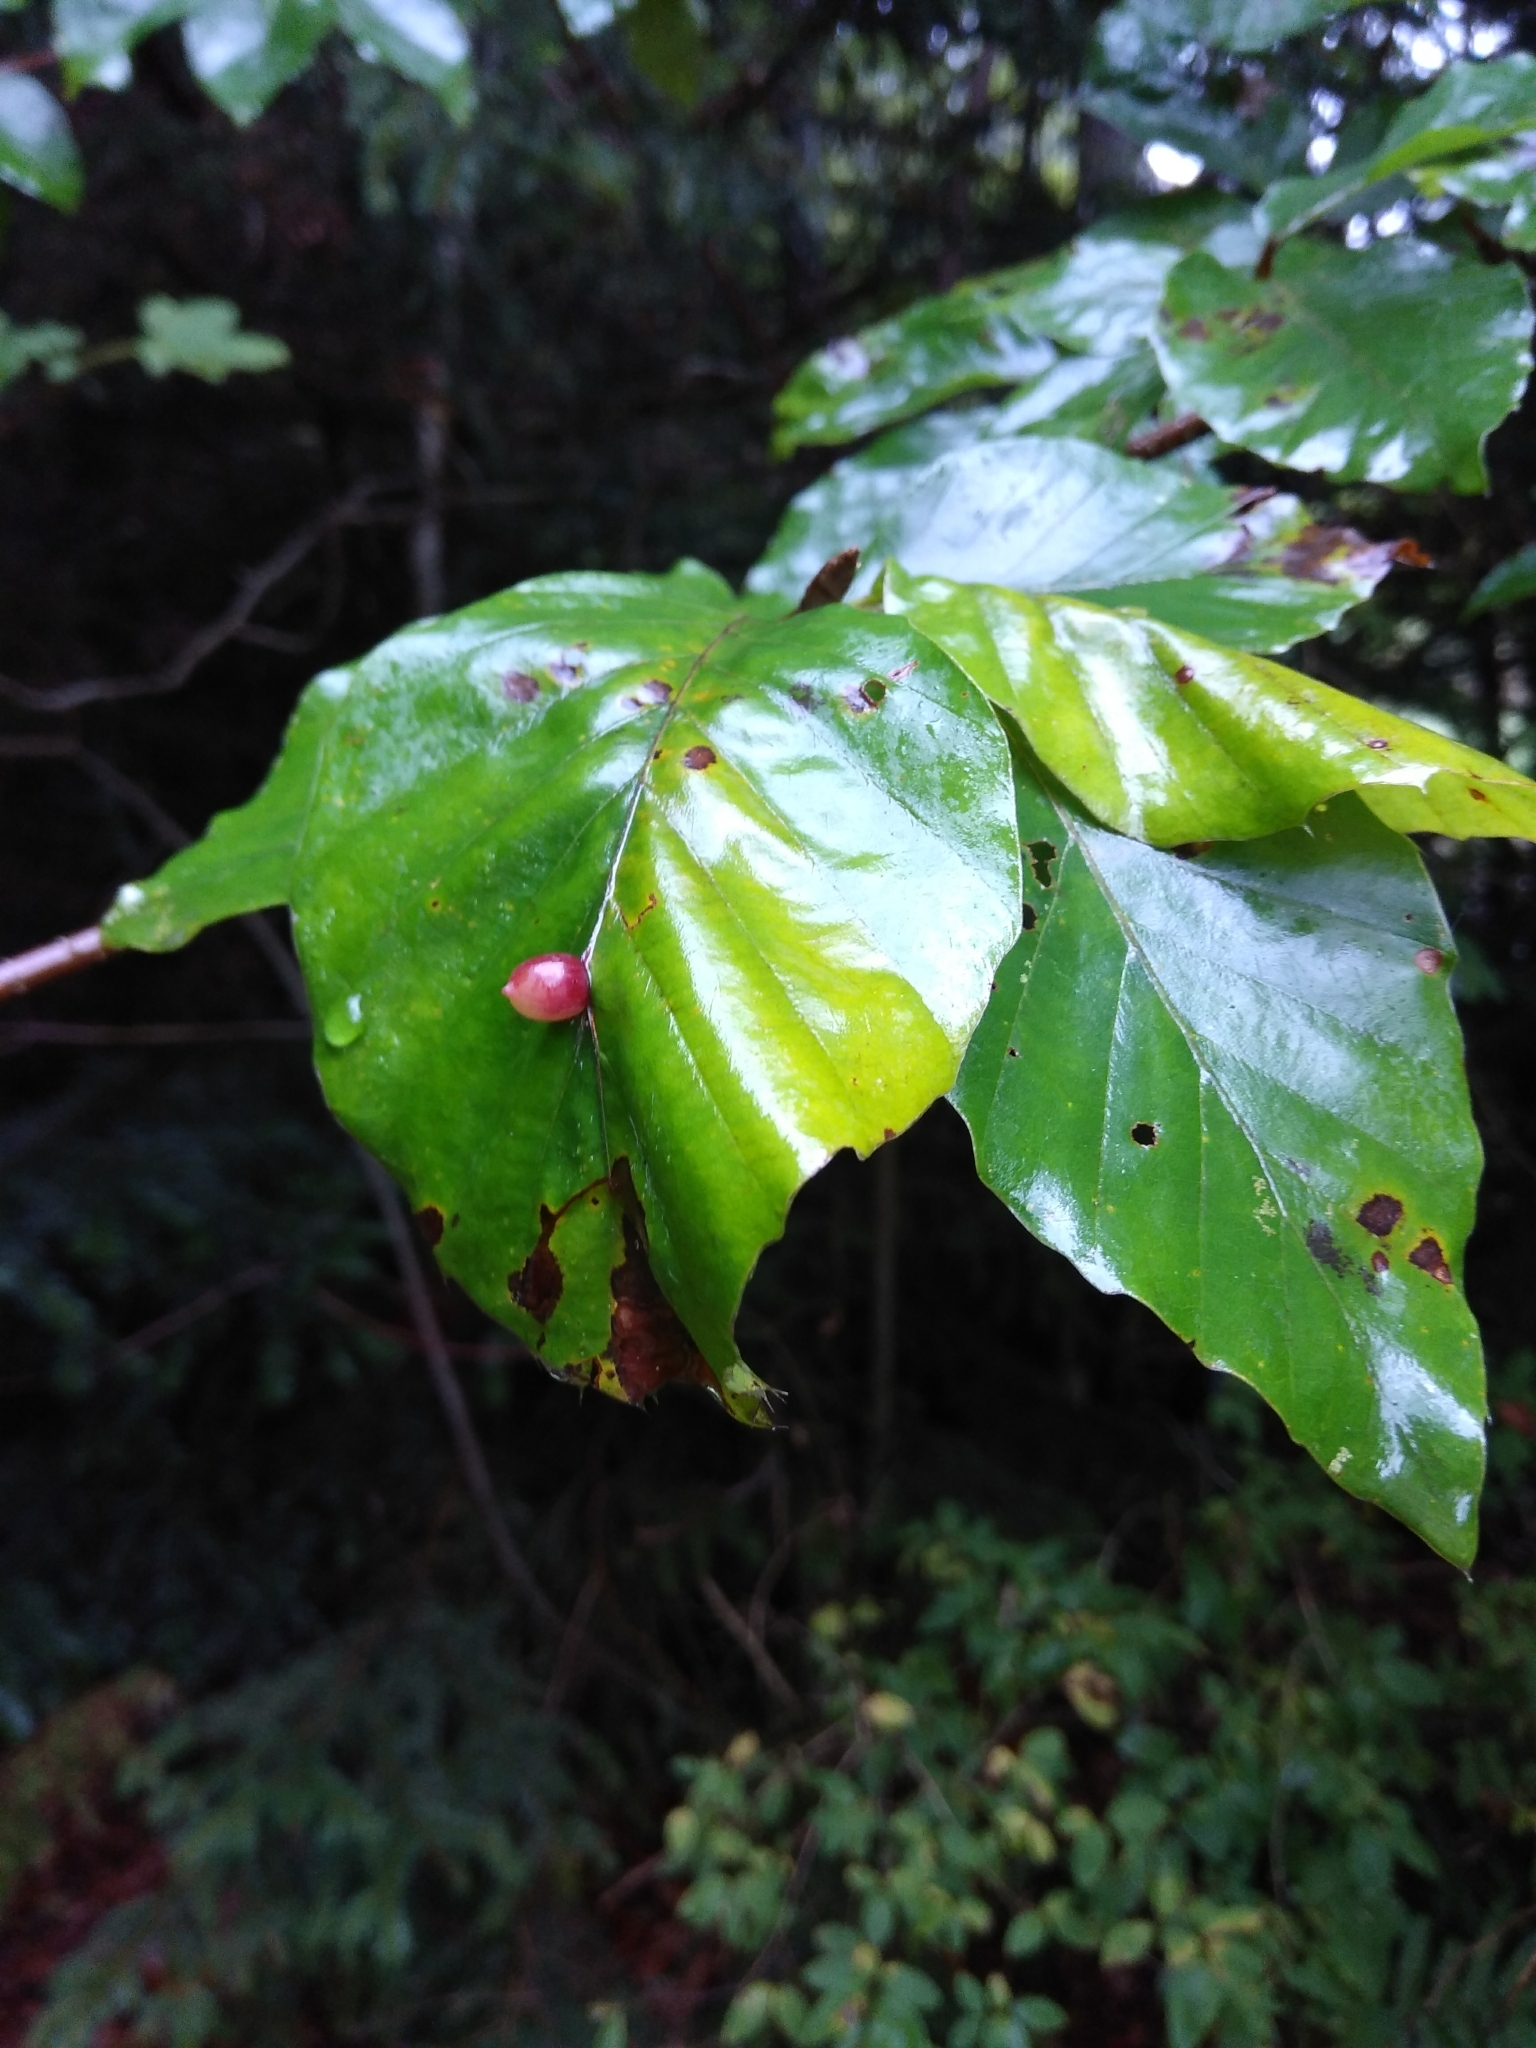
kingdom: Animalia
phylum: Arthropoda
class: Insecta
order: Diptera
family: Cecidomyiidae
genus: Mikiola
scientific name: Mikiola fagi
